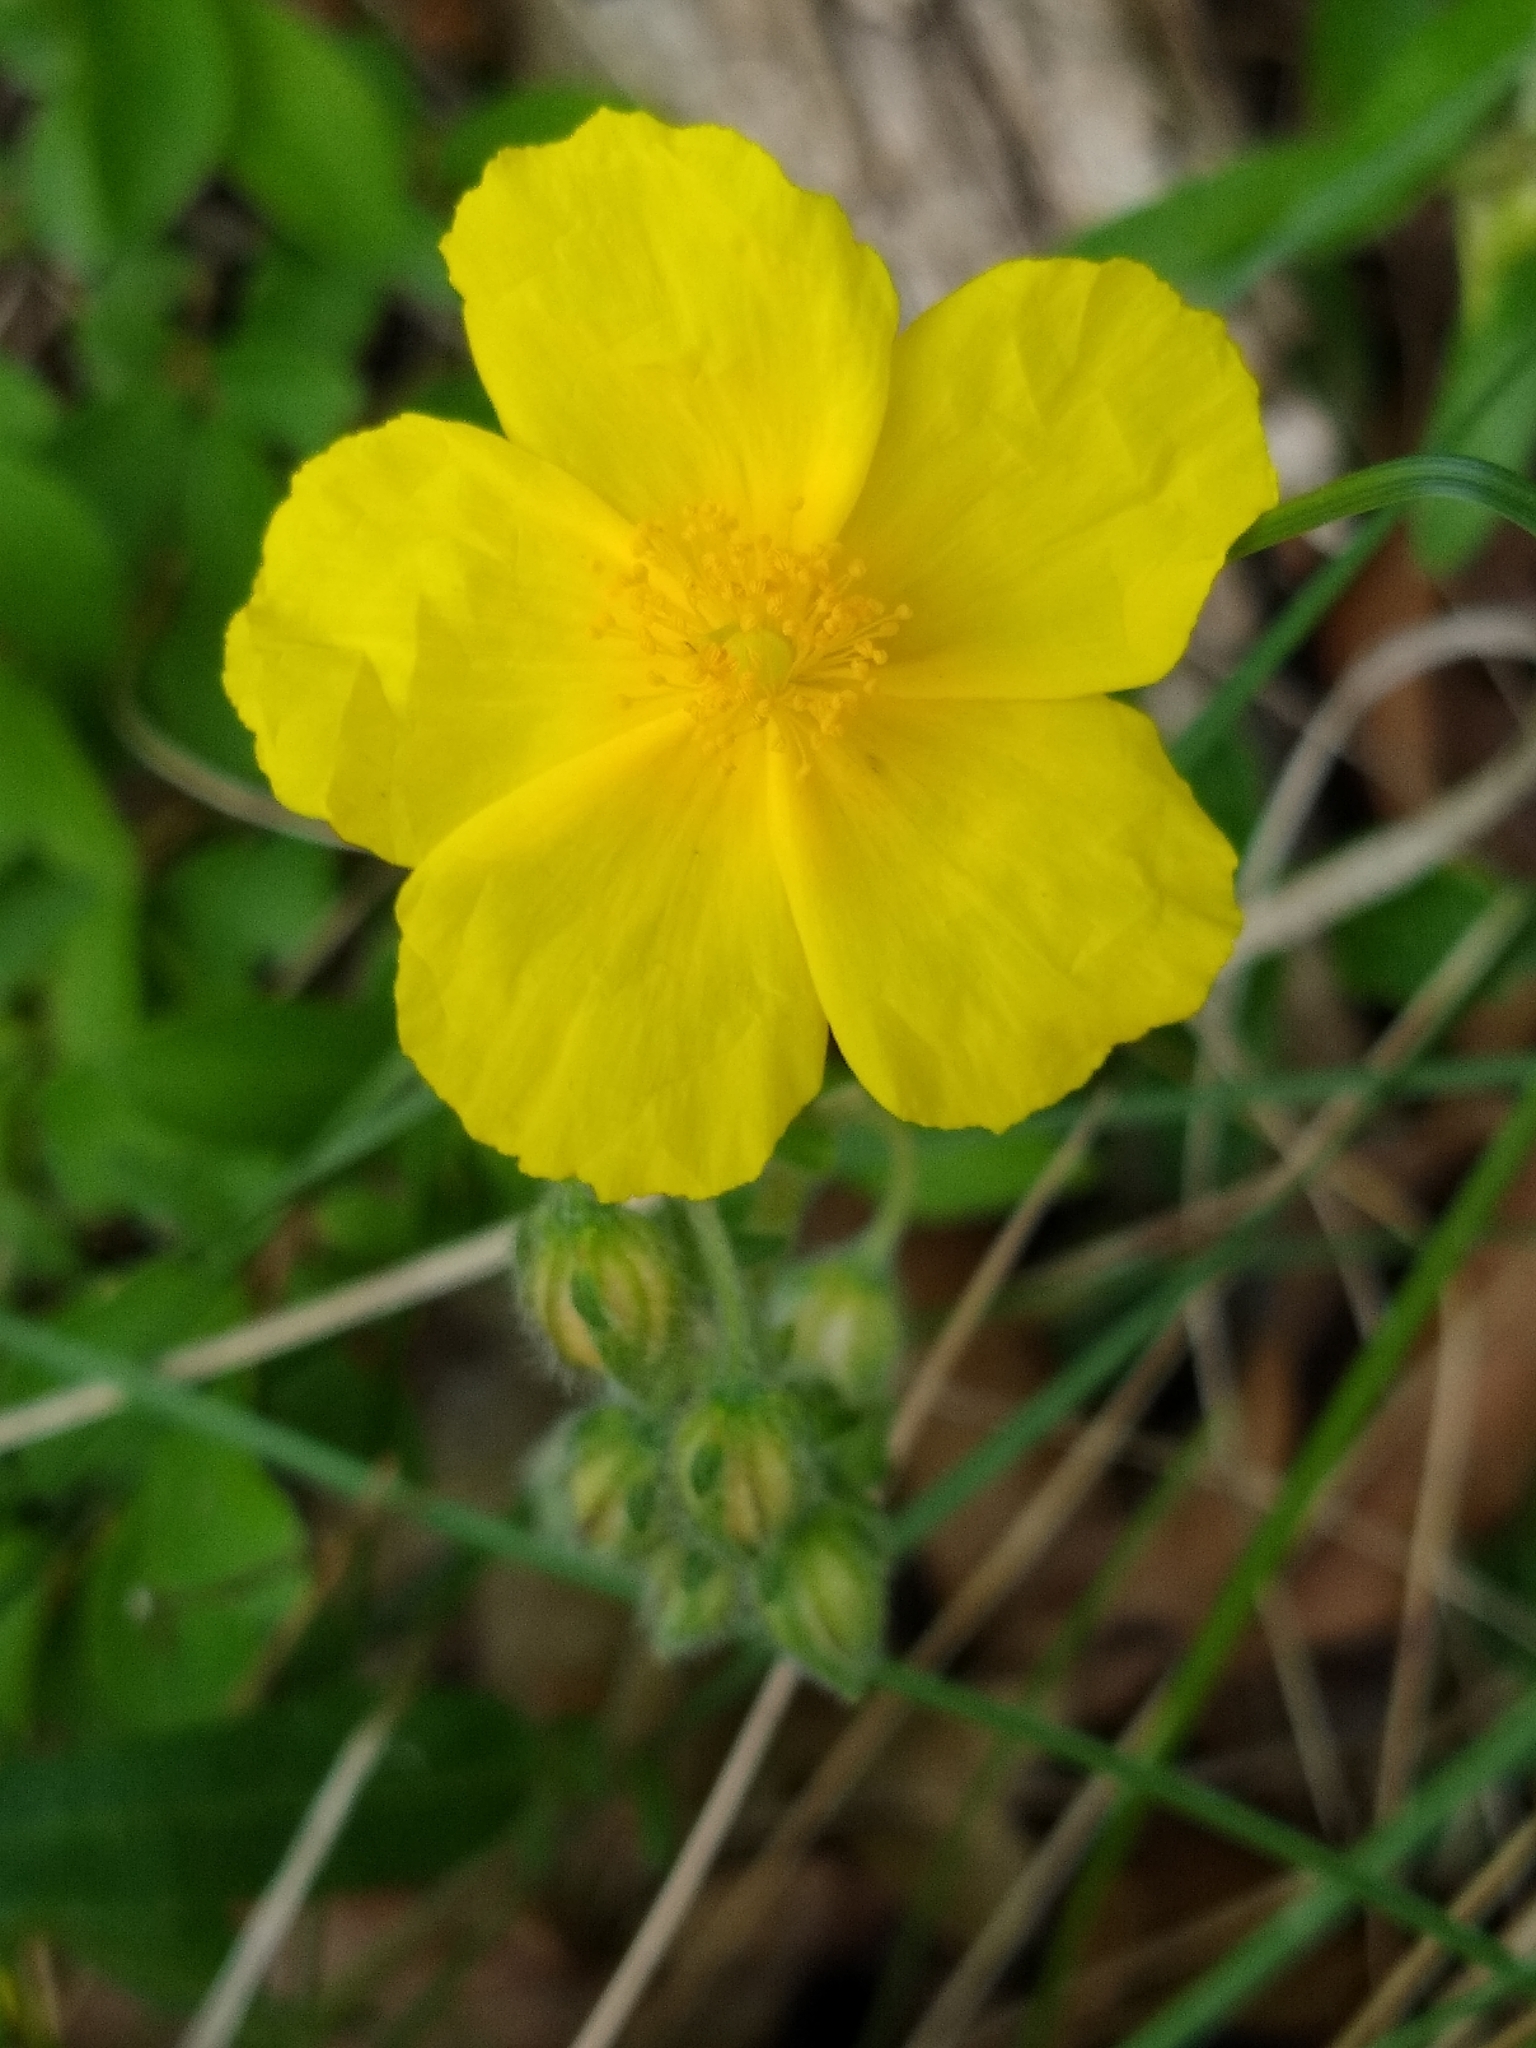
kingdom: Plantae
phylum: Tracheophyta
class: Magnoliopsida
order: Malvales
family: Cistaceae
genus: Helianthemum
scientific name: Helianthemum nummularium
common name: Common rock-rose
